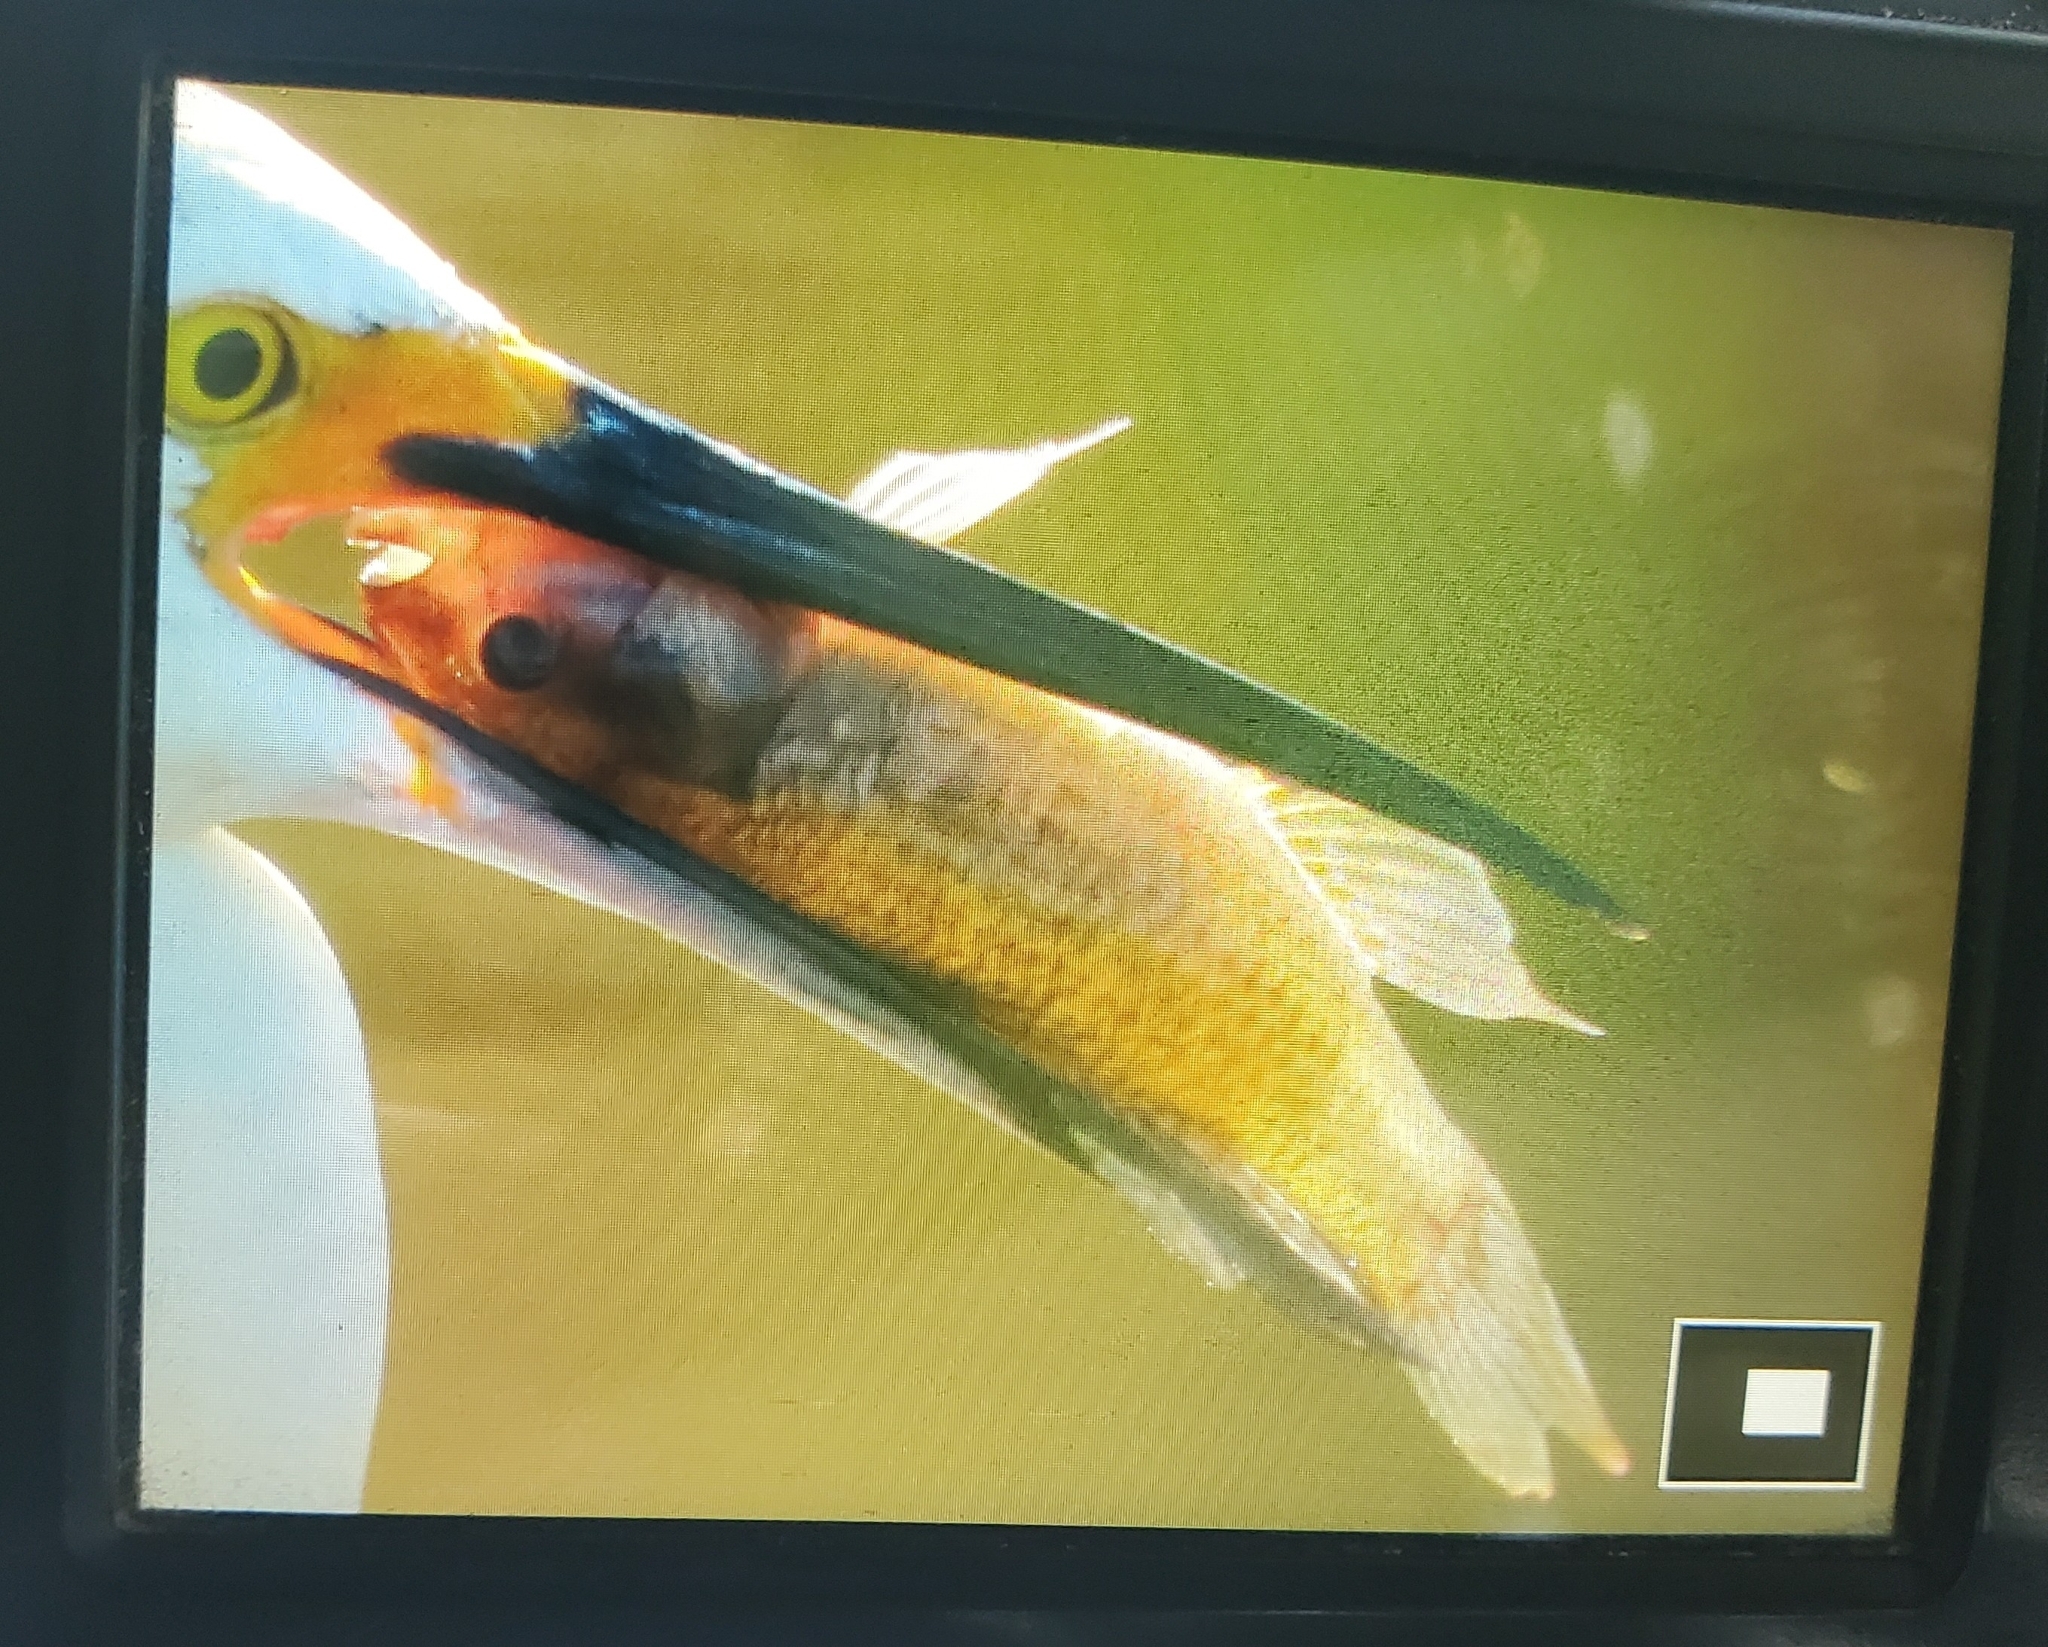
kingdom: Animalia
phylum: Chordata
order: Perciformes
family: Eleotridae
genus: Dormitator
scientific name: Dormitator maculatus
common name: Fat sleeper
